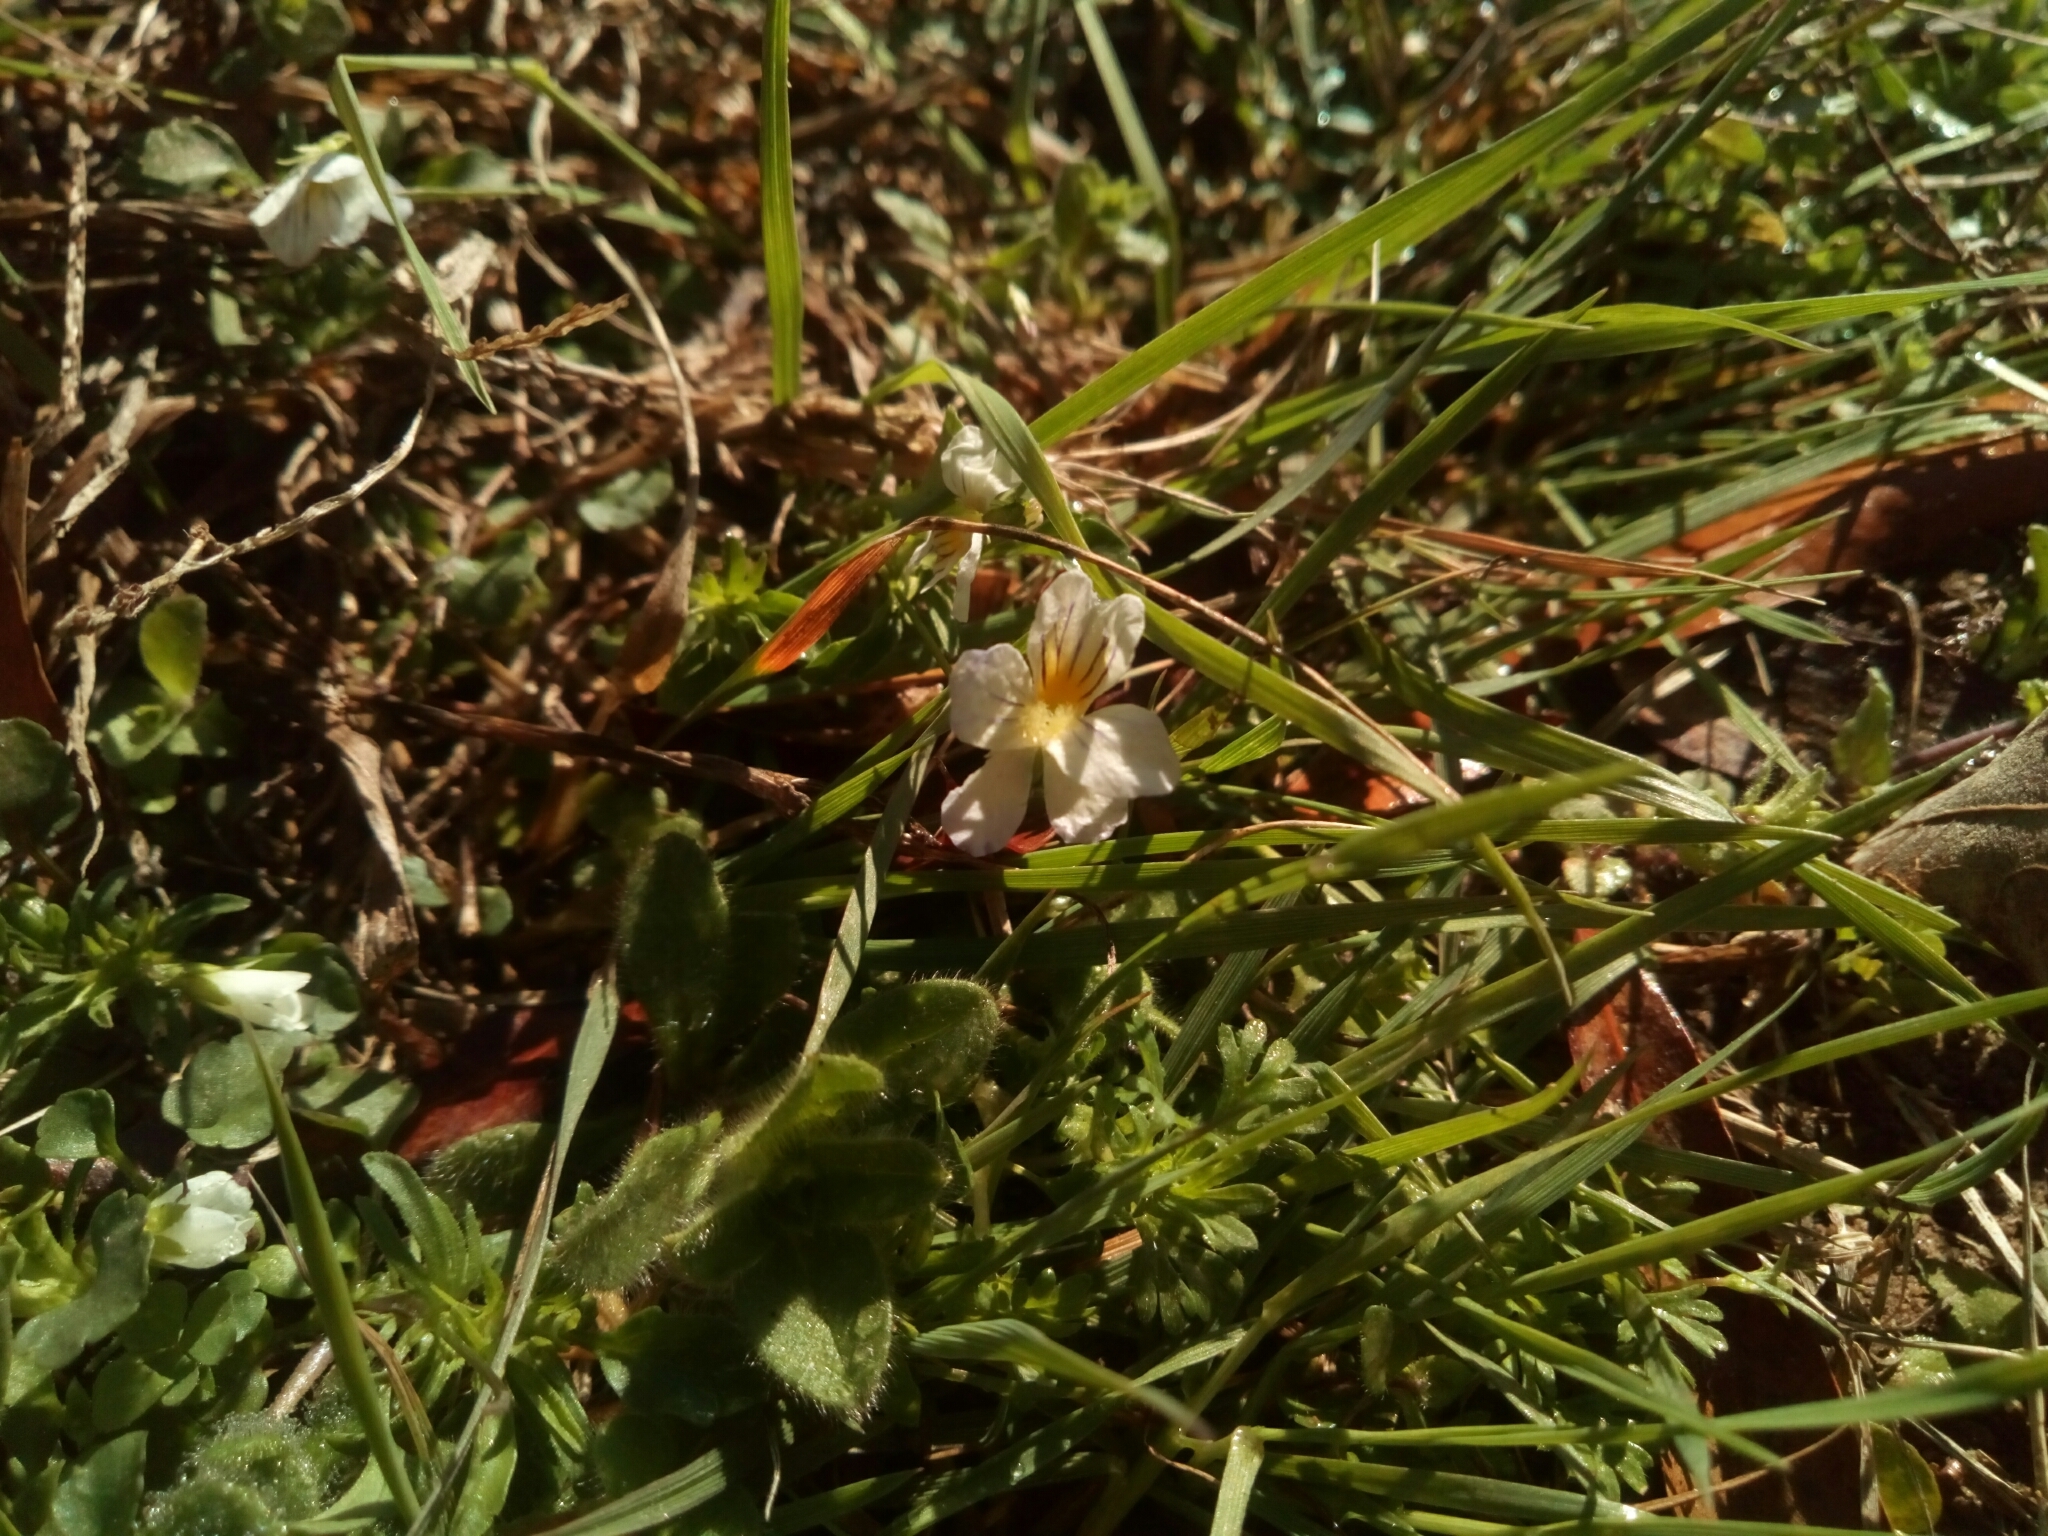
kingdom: Plantae
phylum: Tracheophyta
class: Magnoliopsida
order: Malpighiales
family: Violaceae
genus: Viola
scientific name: Viola rafinesquei
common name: American field pansy
